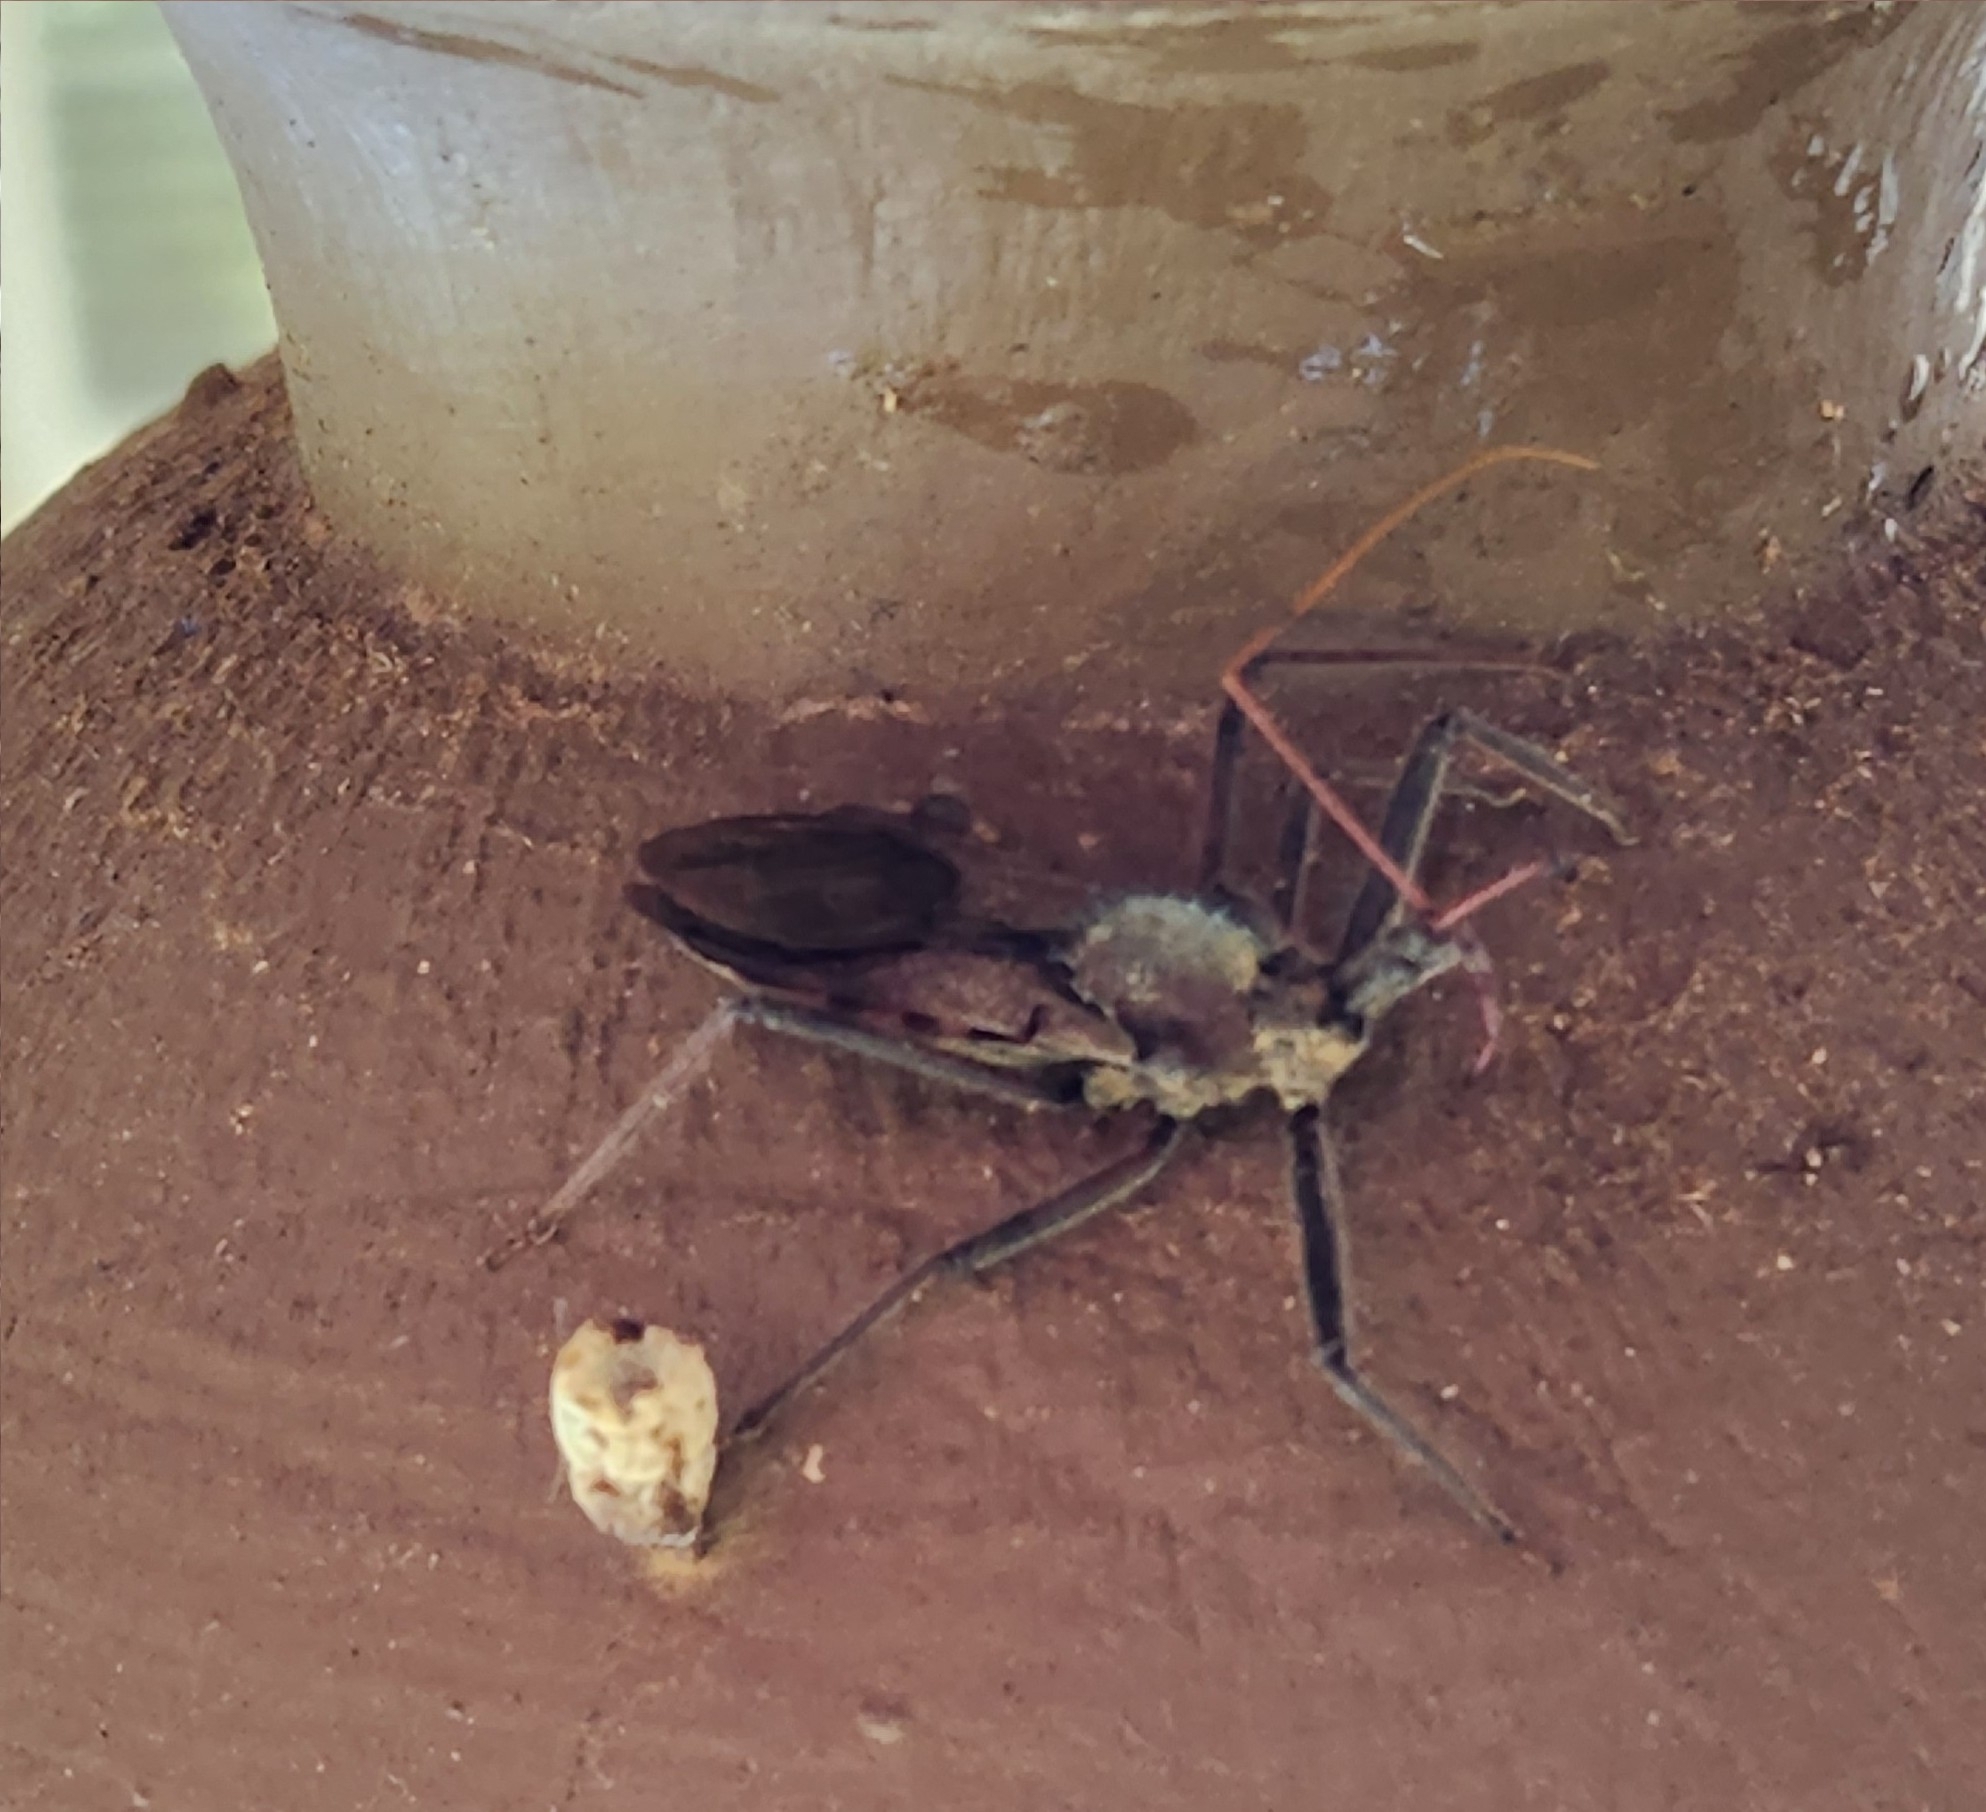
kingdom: Animalia
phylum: Arthropoda
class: Insecta
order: Hemiptera
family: Reduviidae
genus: Arilus
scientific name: Arilus cristatus
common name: North american wheel bug
